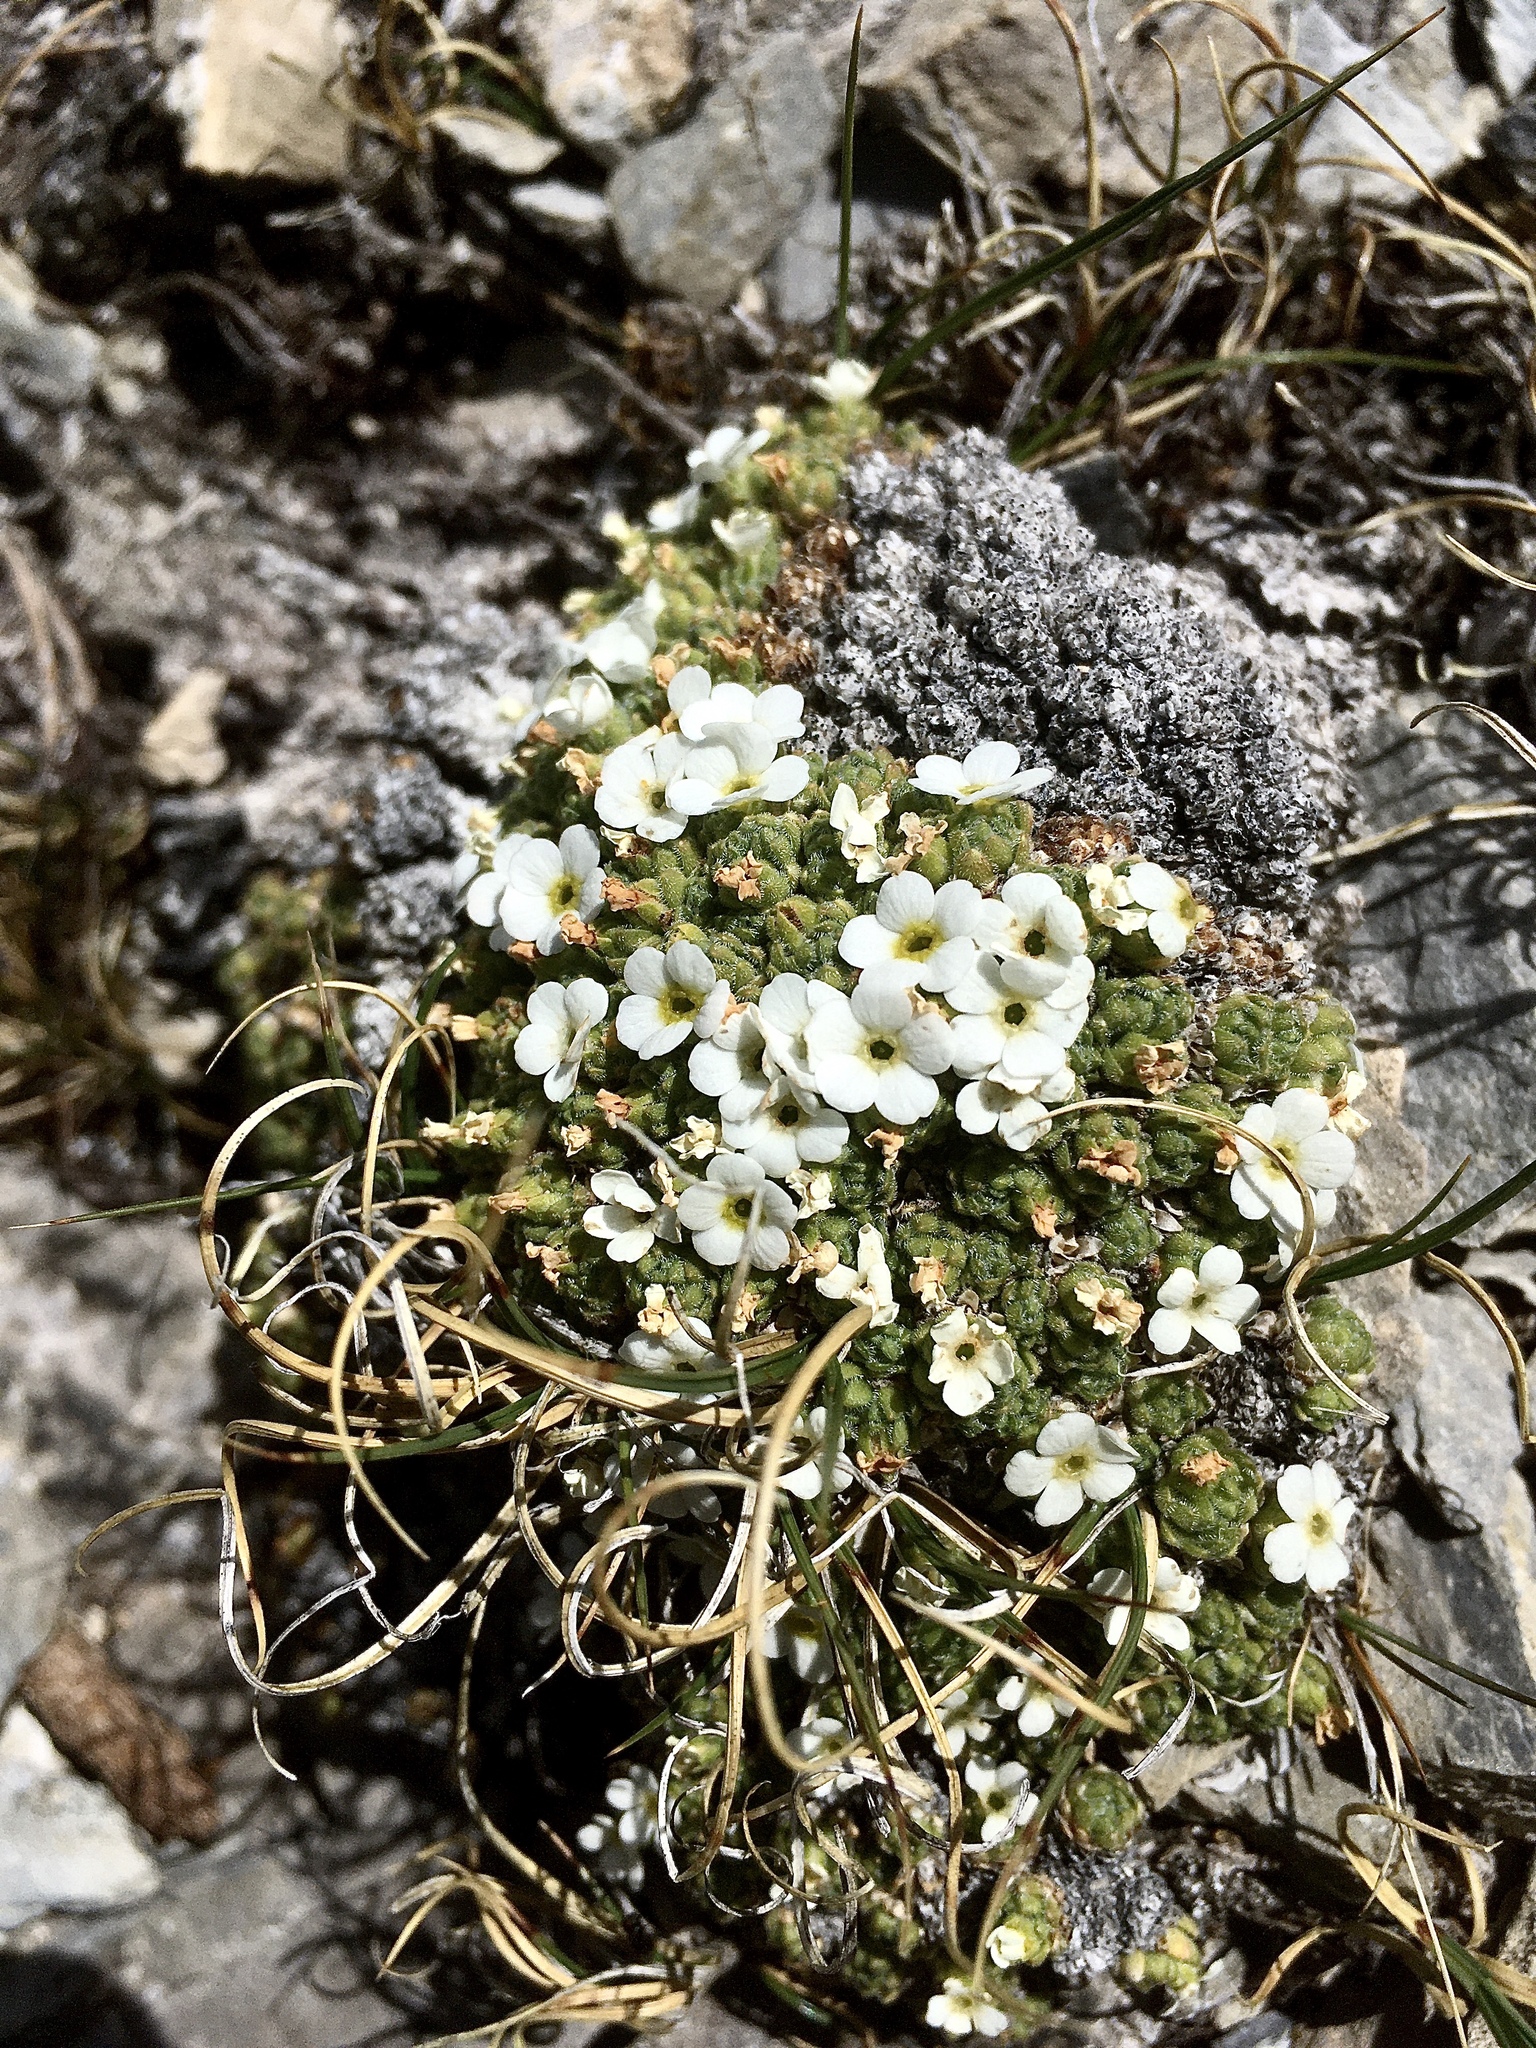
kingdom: Plantae
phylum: Tracheophyta
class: Magnoliopsida
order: Ericales
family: Primulaceae
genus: Androsace
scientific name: Androsace helvetica
